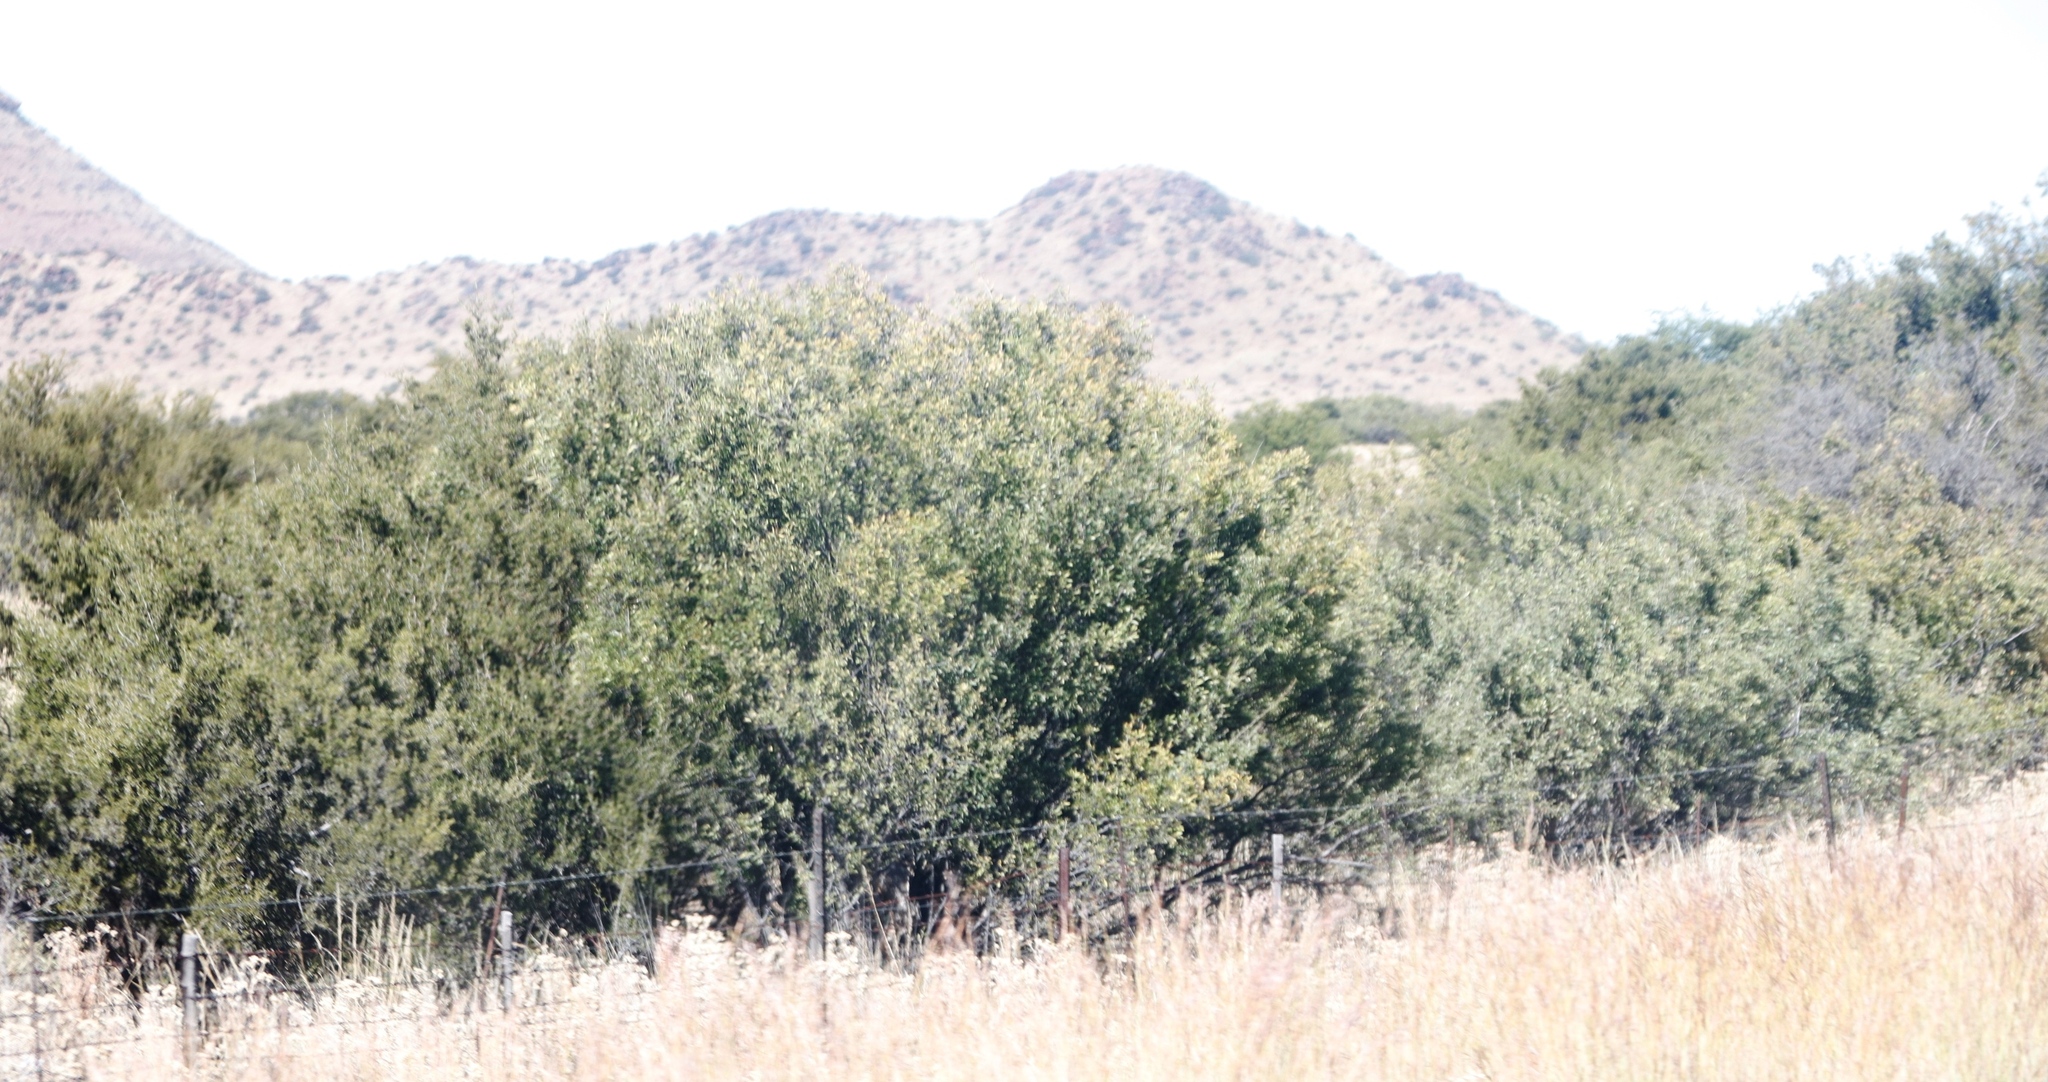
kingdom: Plantae
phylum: Tracheophyta
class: Magnoliopsida
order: Fabales
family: Fabaceae
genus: Vachellia
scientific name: Vachellia karroo
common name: Sweet thorn
